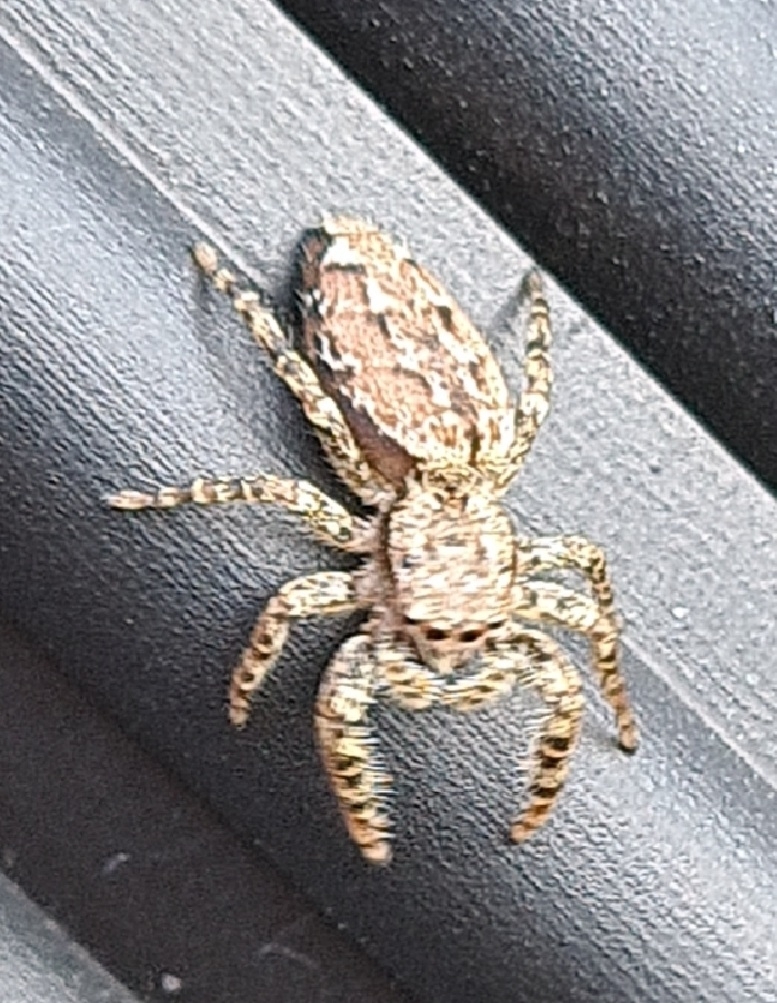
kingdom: Animalia
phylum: Arthropoda
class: Arachnida
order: Araneae
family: Salticidae
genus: Marpissa
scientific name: Marpissa muscosa
